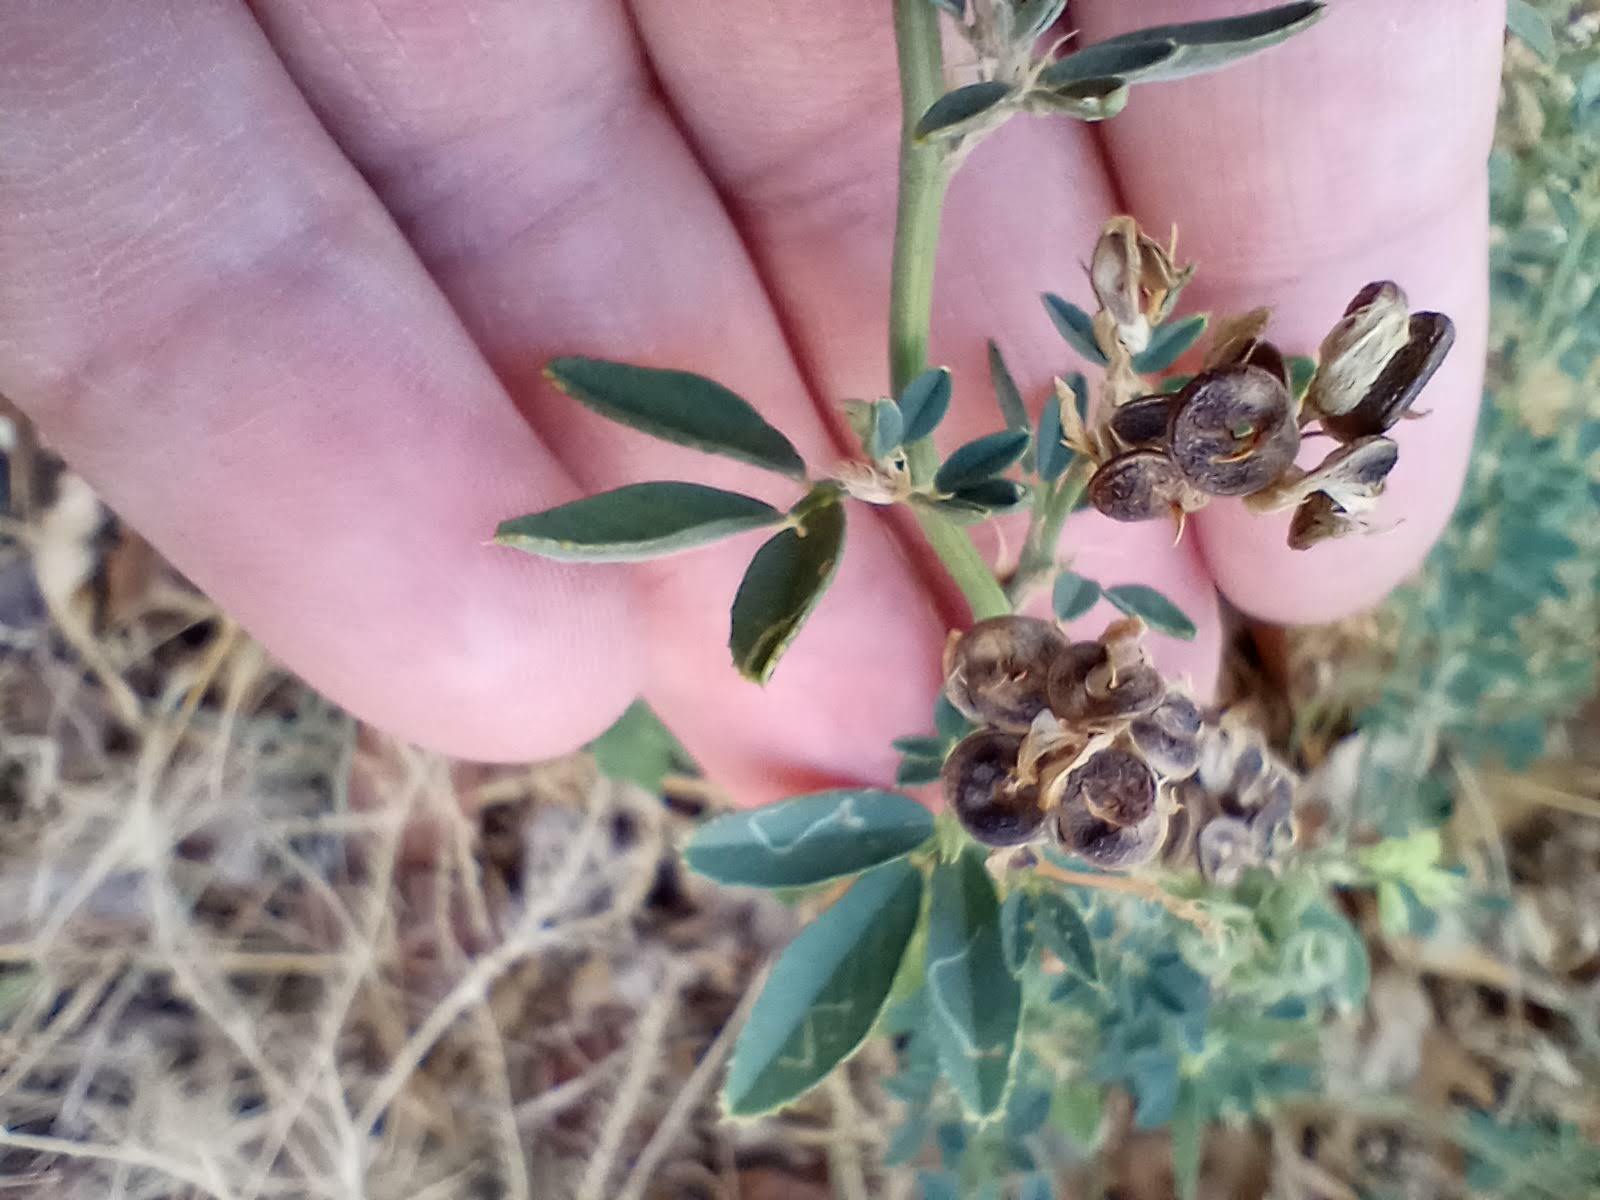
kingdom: Plantae
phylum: Tracheophyta
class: Magnoliopsida
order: Fabales
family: Fabaceae
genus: Medicago
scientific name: Medicago sativa
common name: Alfalfa
